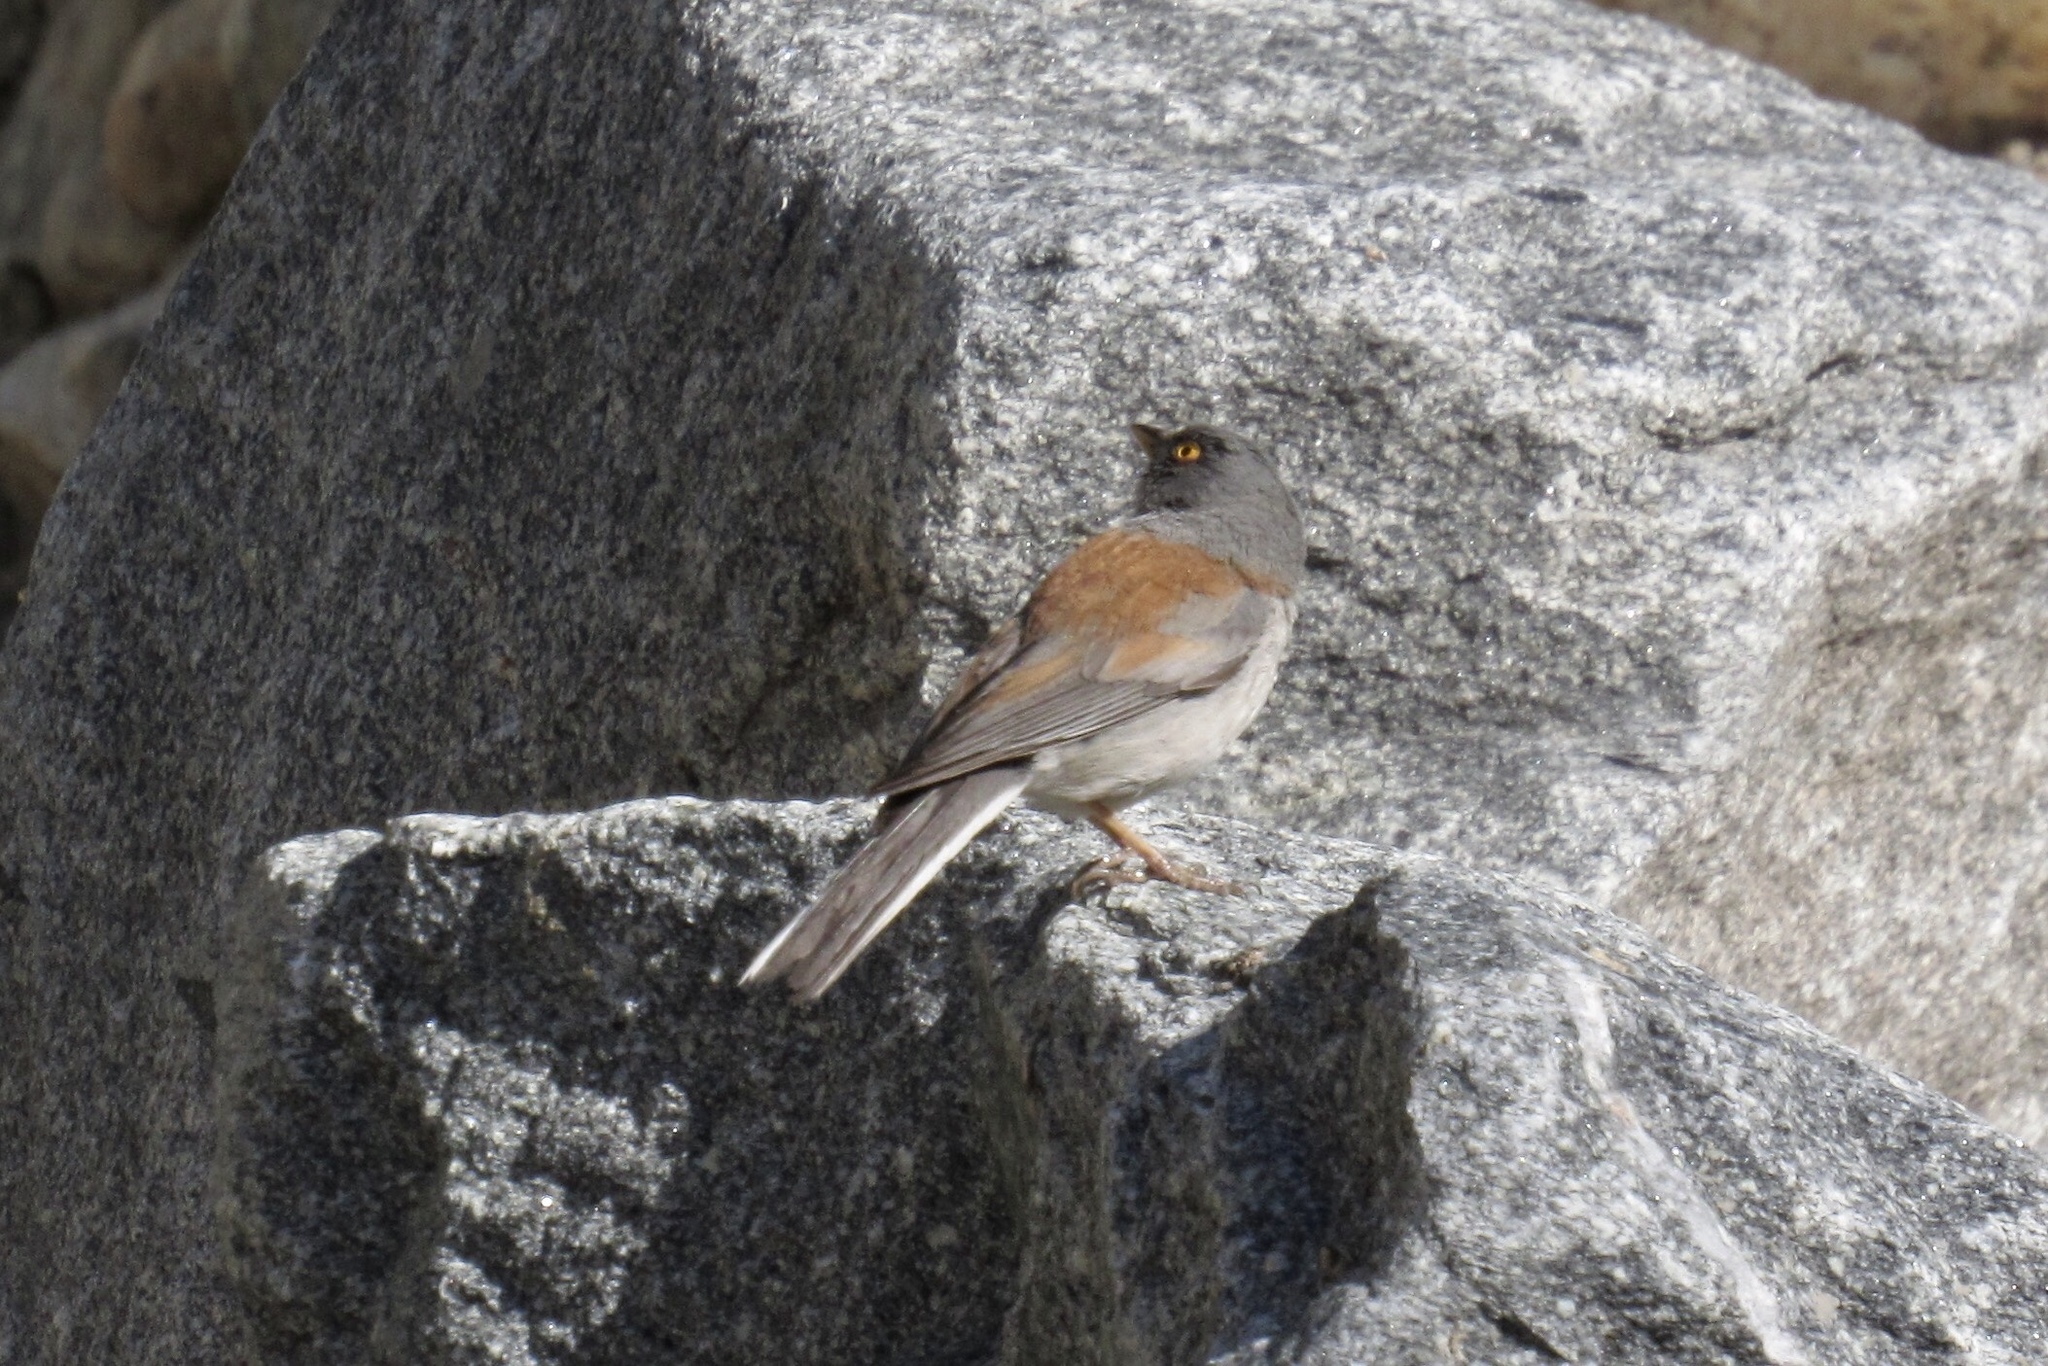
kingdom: Animalia
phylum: Chordata
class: Aves
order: Passeriformes
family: Passerellidae
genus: Junco
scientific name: Junco phaeonotus
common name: Yellow-eyed junco
